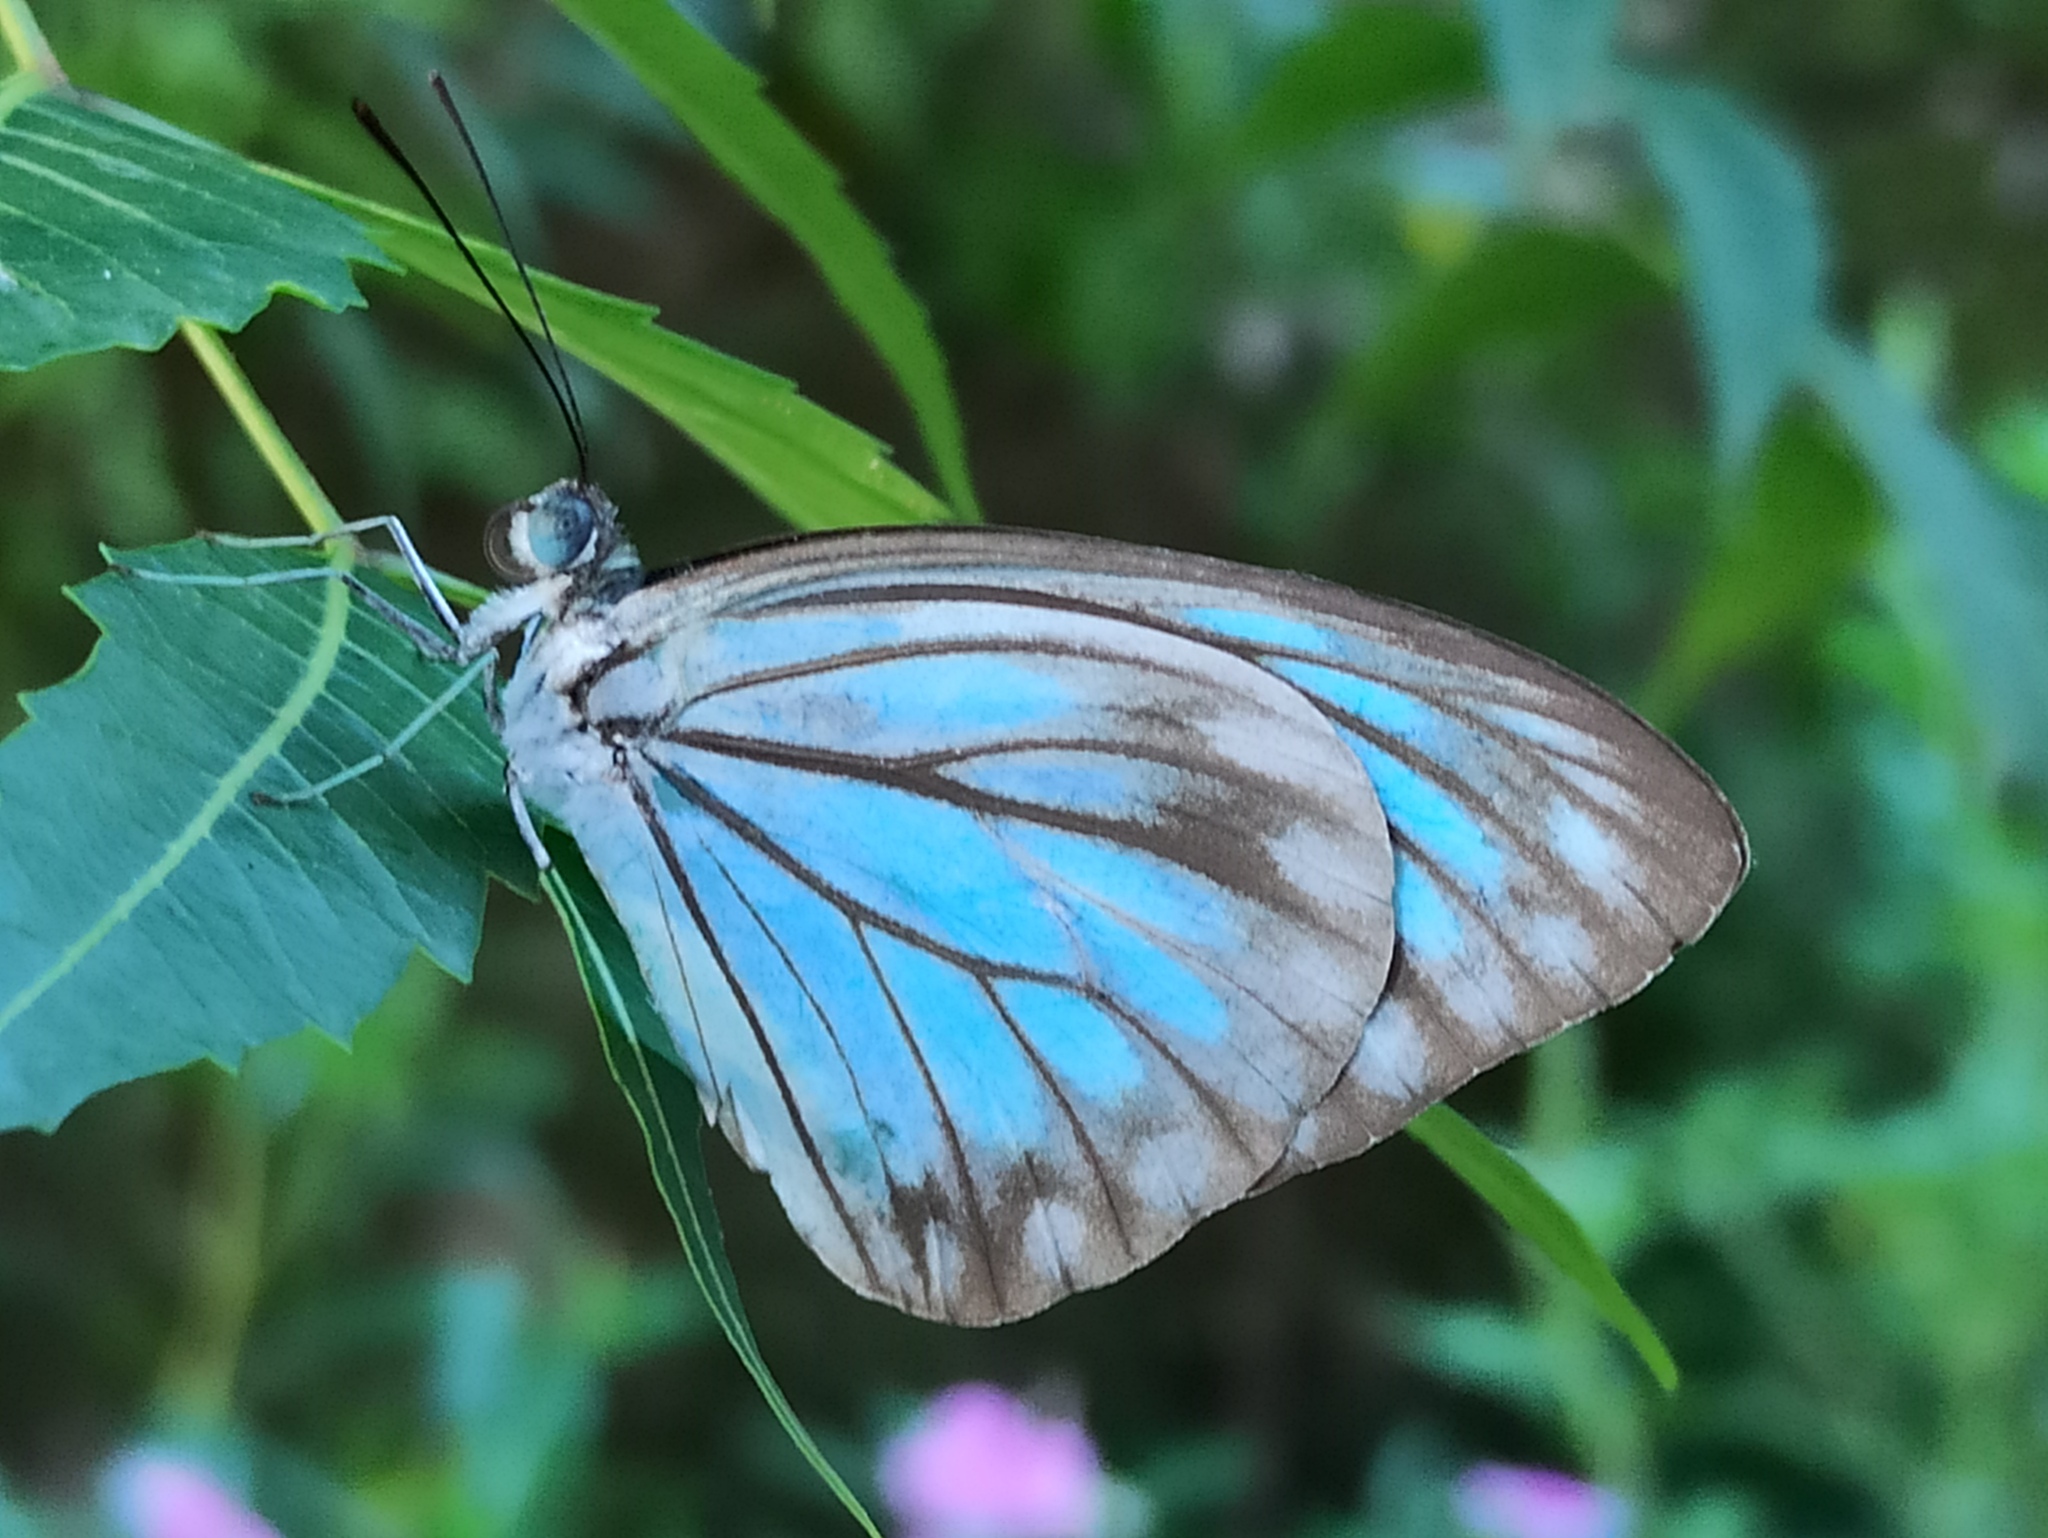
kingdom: Animalia
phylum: Arthropoda
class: Insecta
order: Lepidoptera
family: Pieridae
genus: Pareronia
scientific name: Pareronia hippia
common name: Indian wanderer
